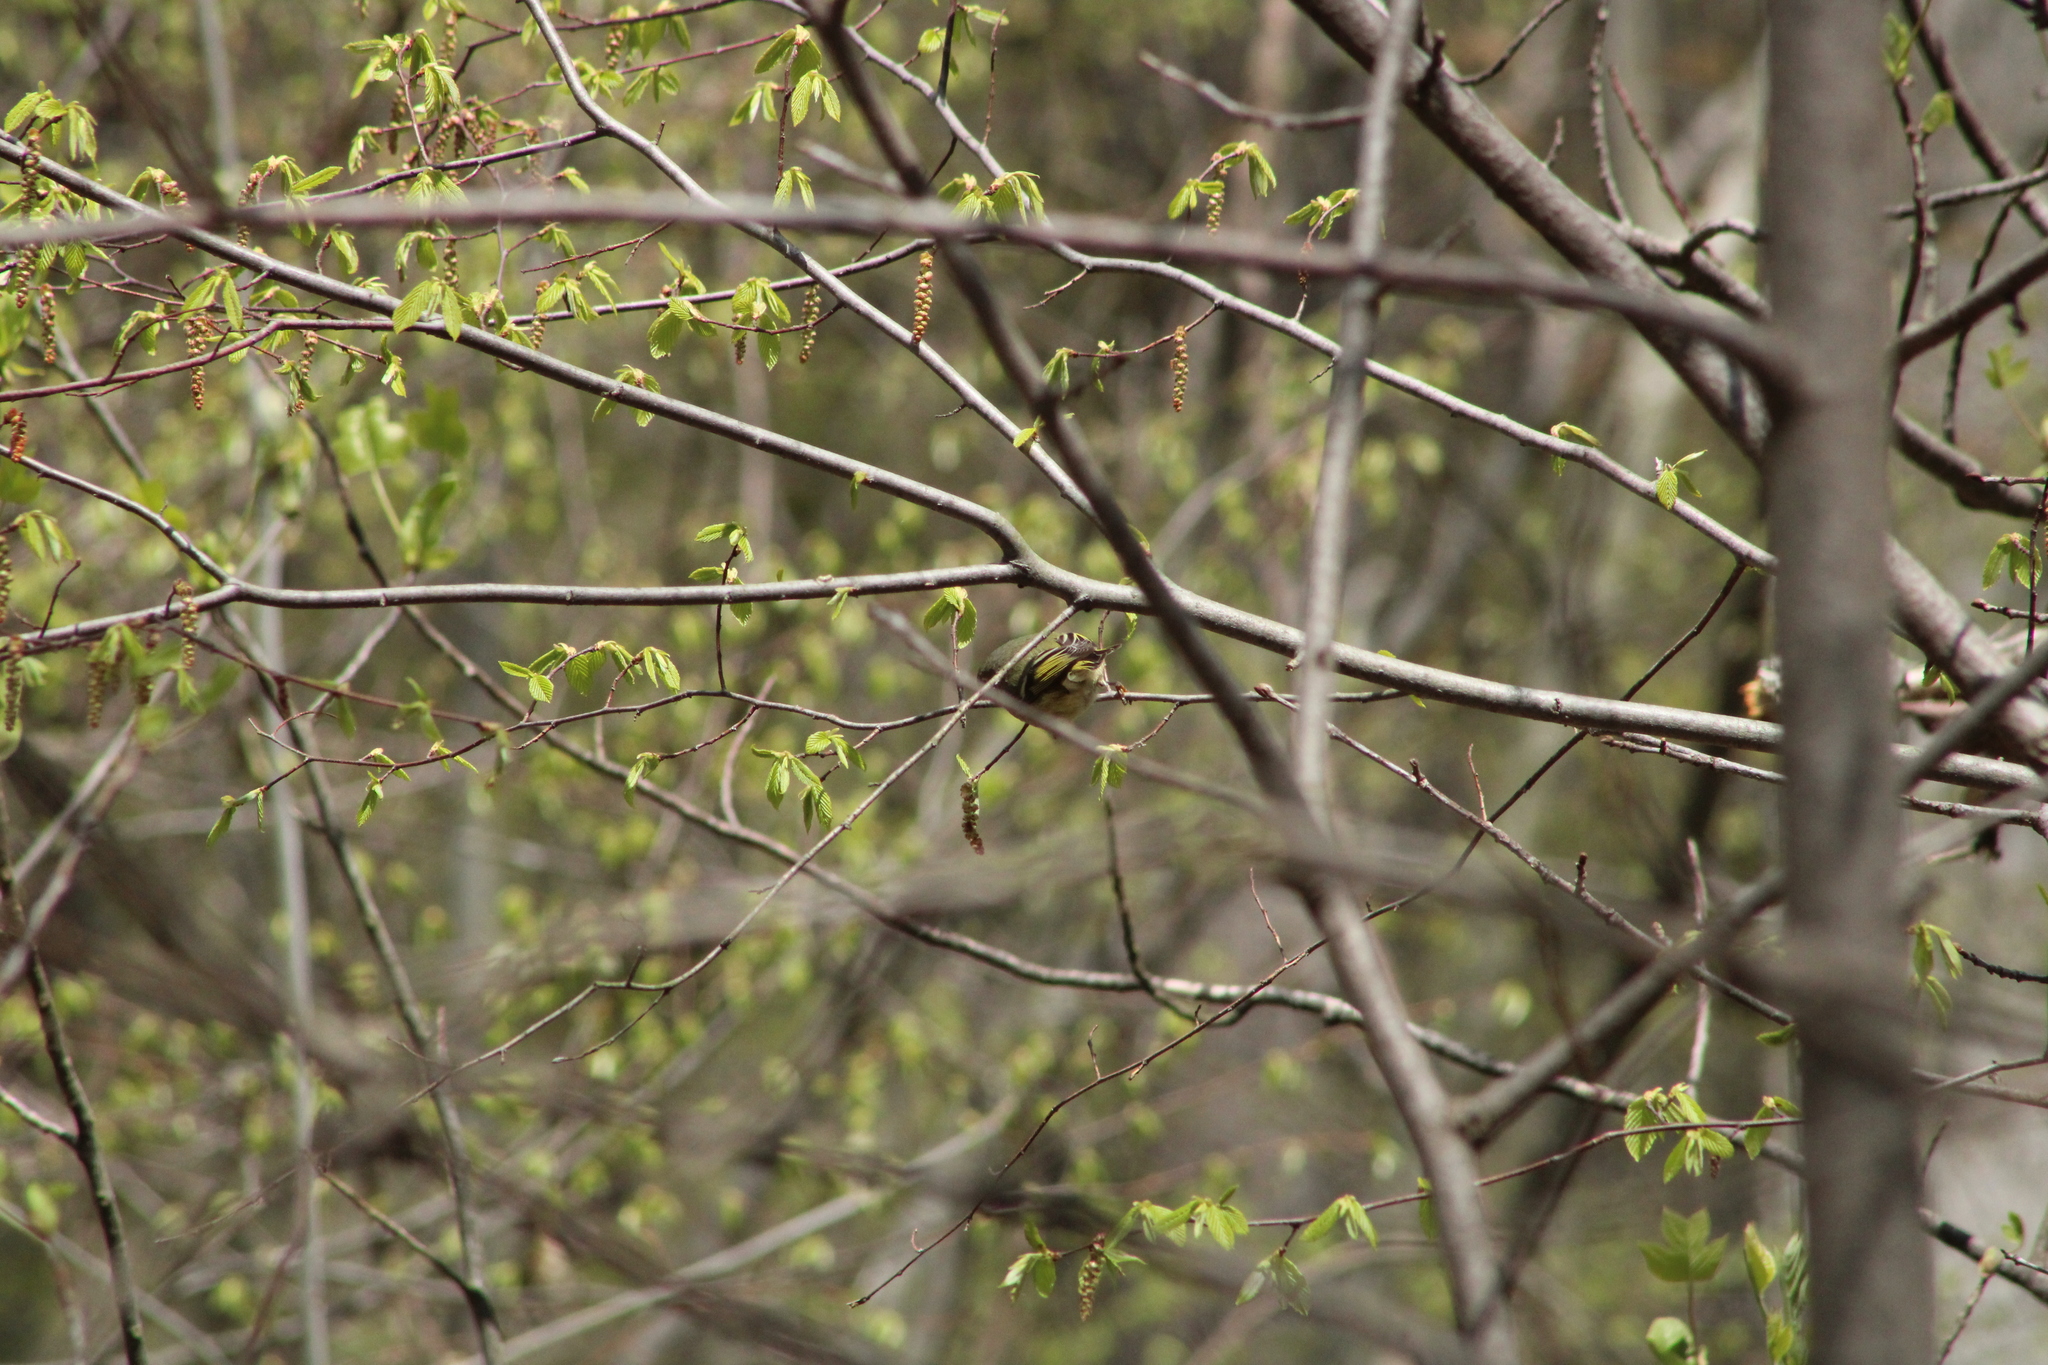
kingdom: Animalia
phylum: Chordata
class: Aves
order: Passeriformes
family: Regulidae
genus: Regulus
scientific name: Regulus calendula
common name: Ruby-crowned kinglet
